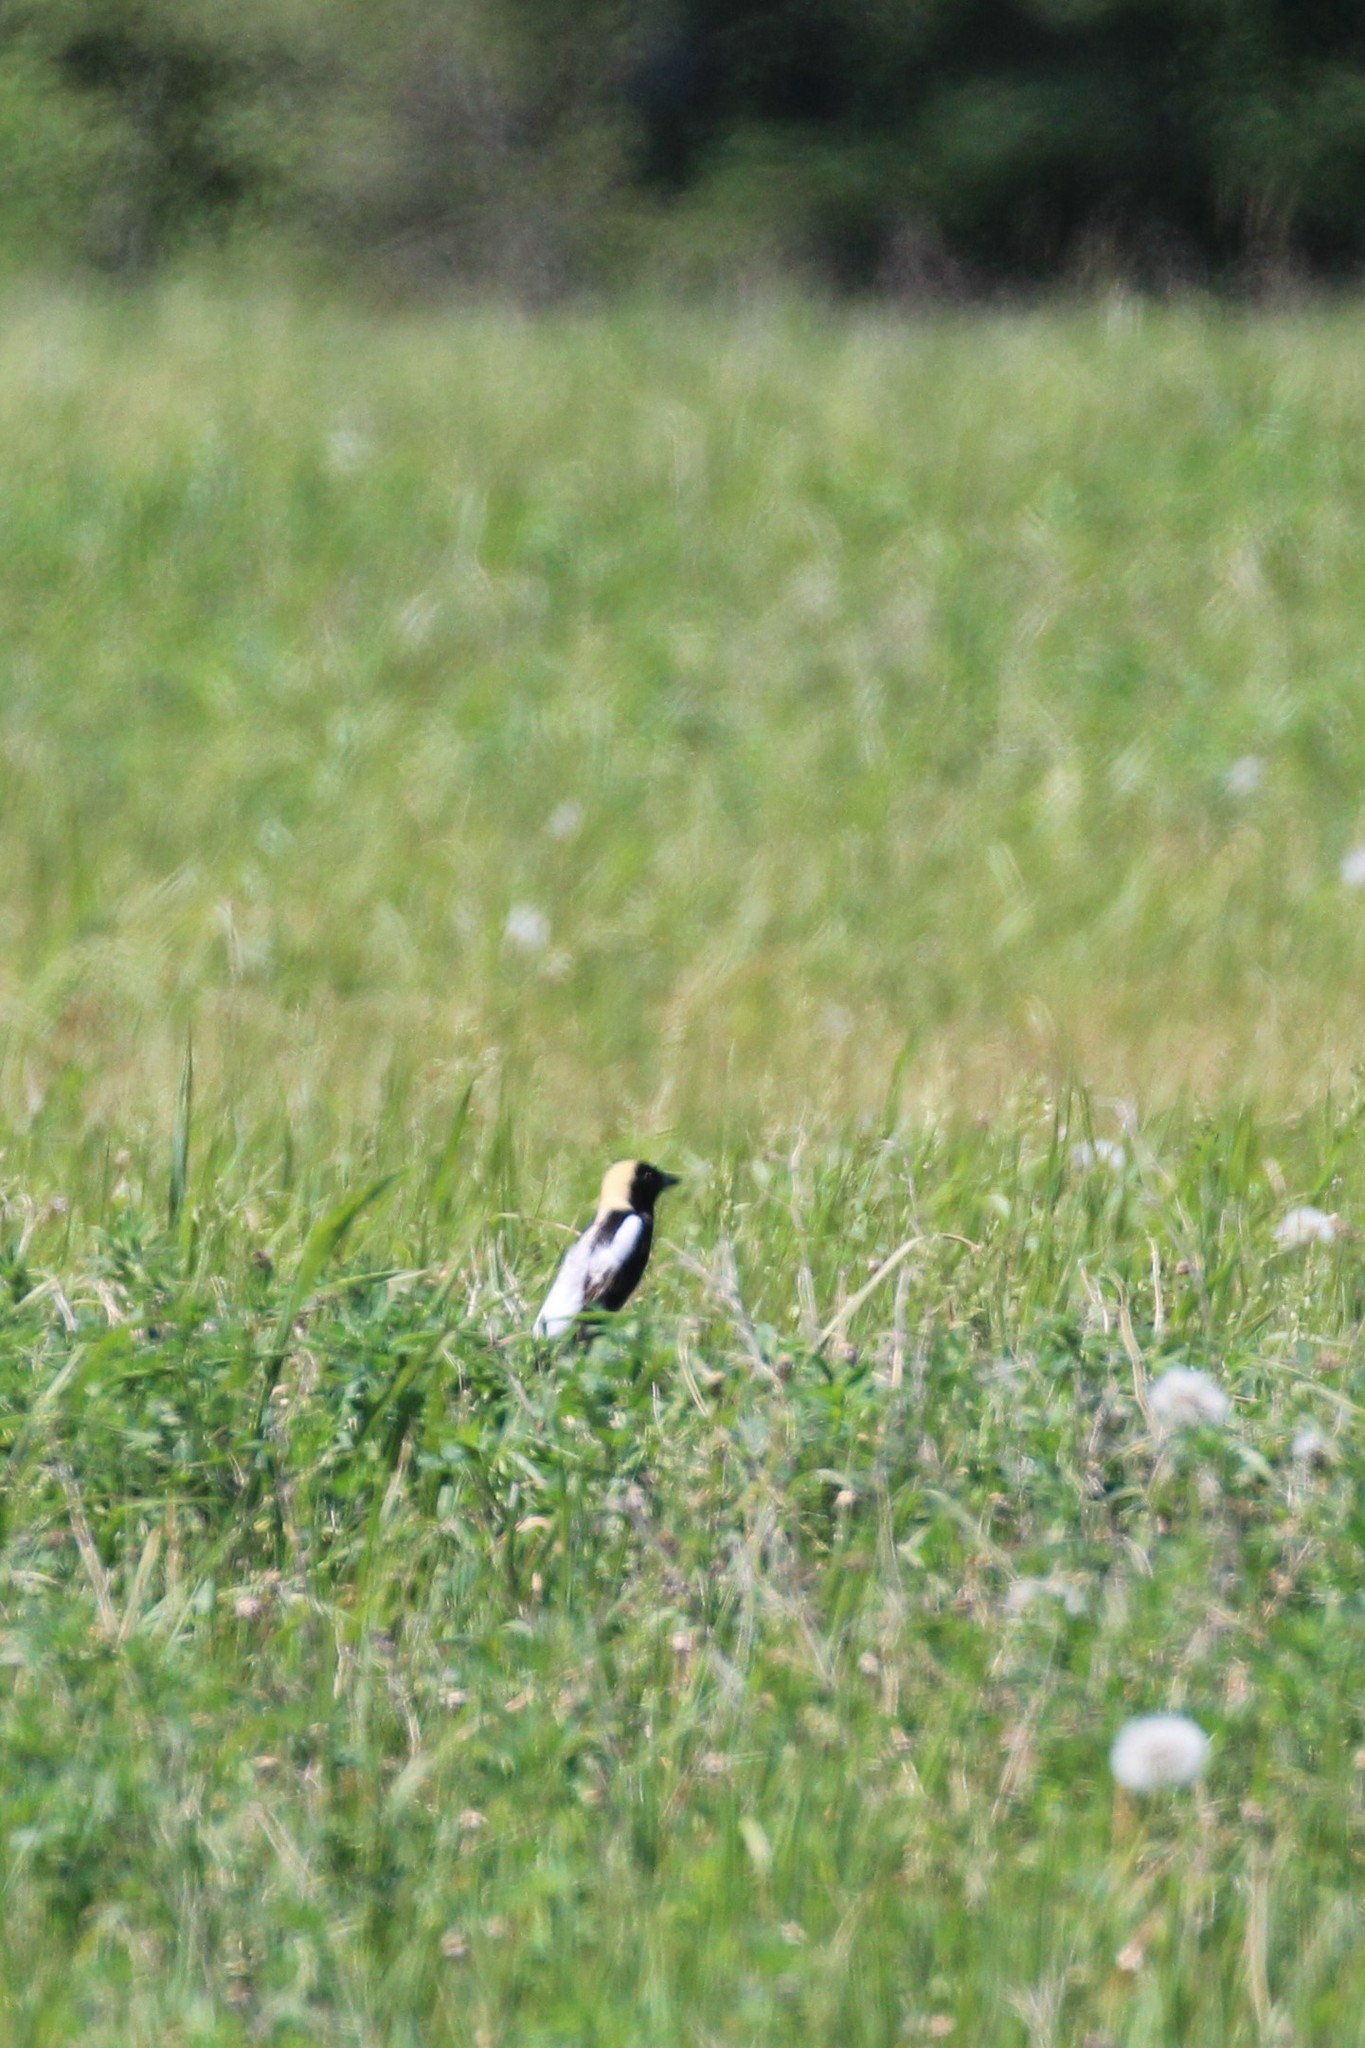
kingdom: Animalia
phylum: Chordata
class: Aves
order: Passeriformes
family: Icteridae
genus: Dolichonyx
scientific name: Dolichonyx oryzivorus
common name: Bobolink
